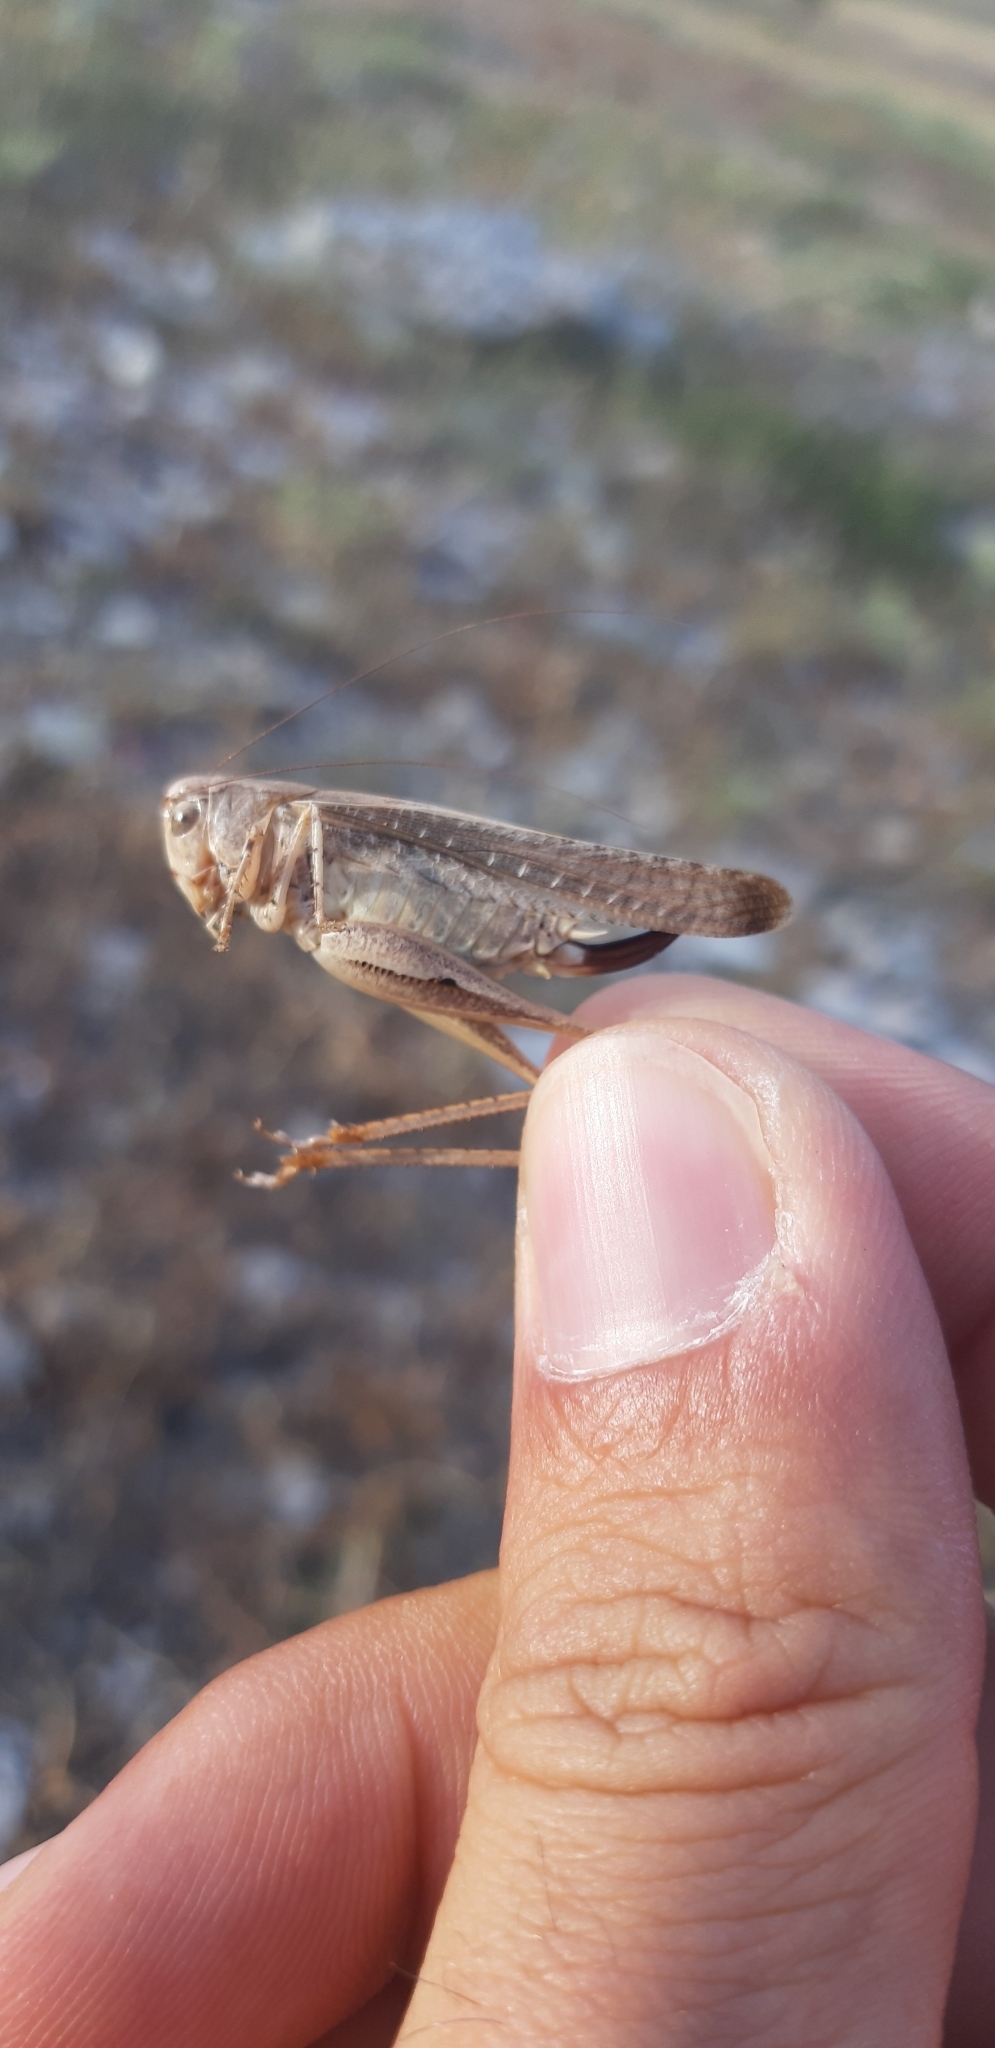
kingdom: Animalia
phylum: Arthropoda
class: Insecta
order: Orthoptera
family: Tettigoniidae
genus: Platycleis
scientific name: Platycleis intermedia
